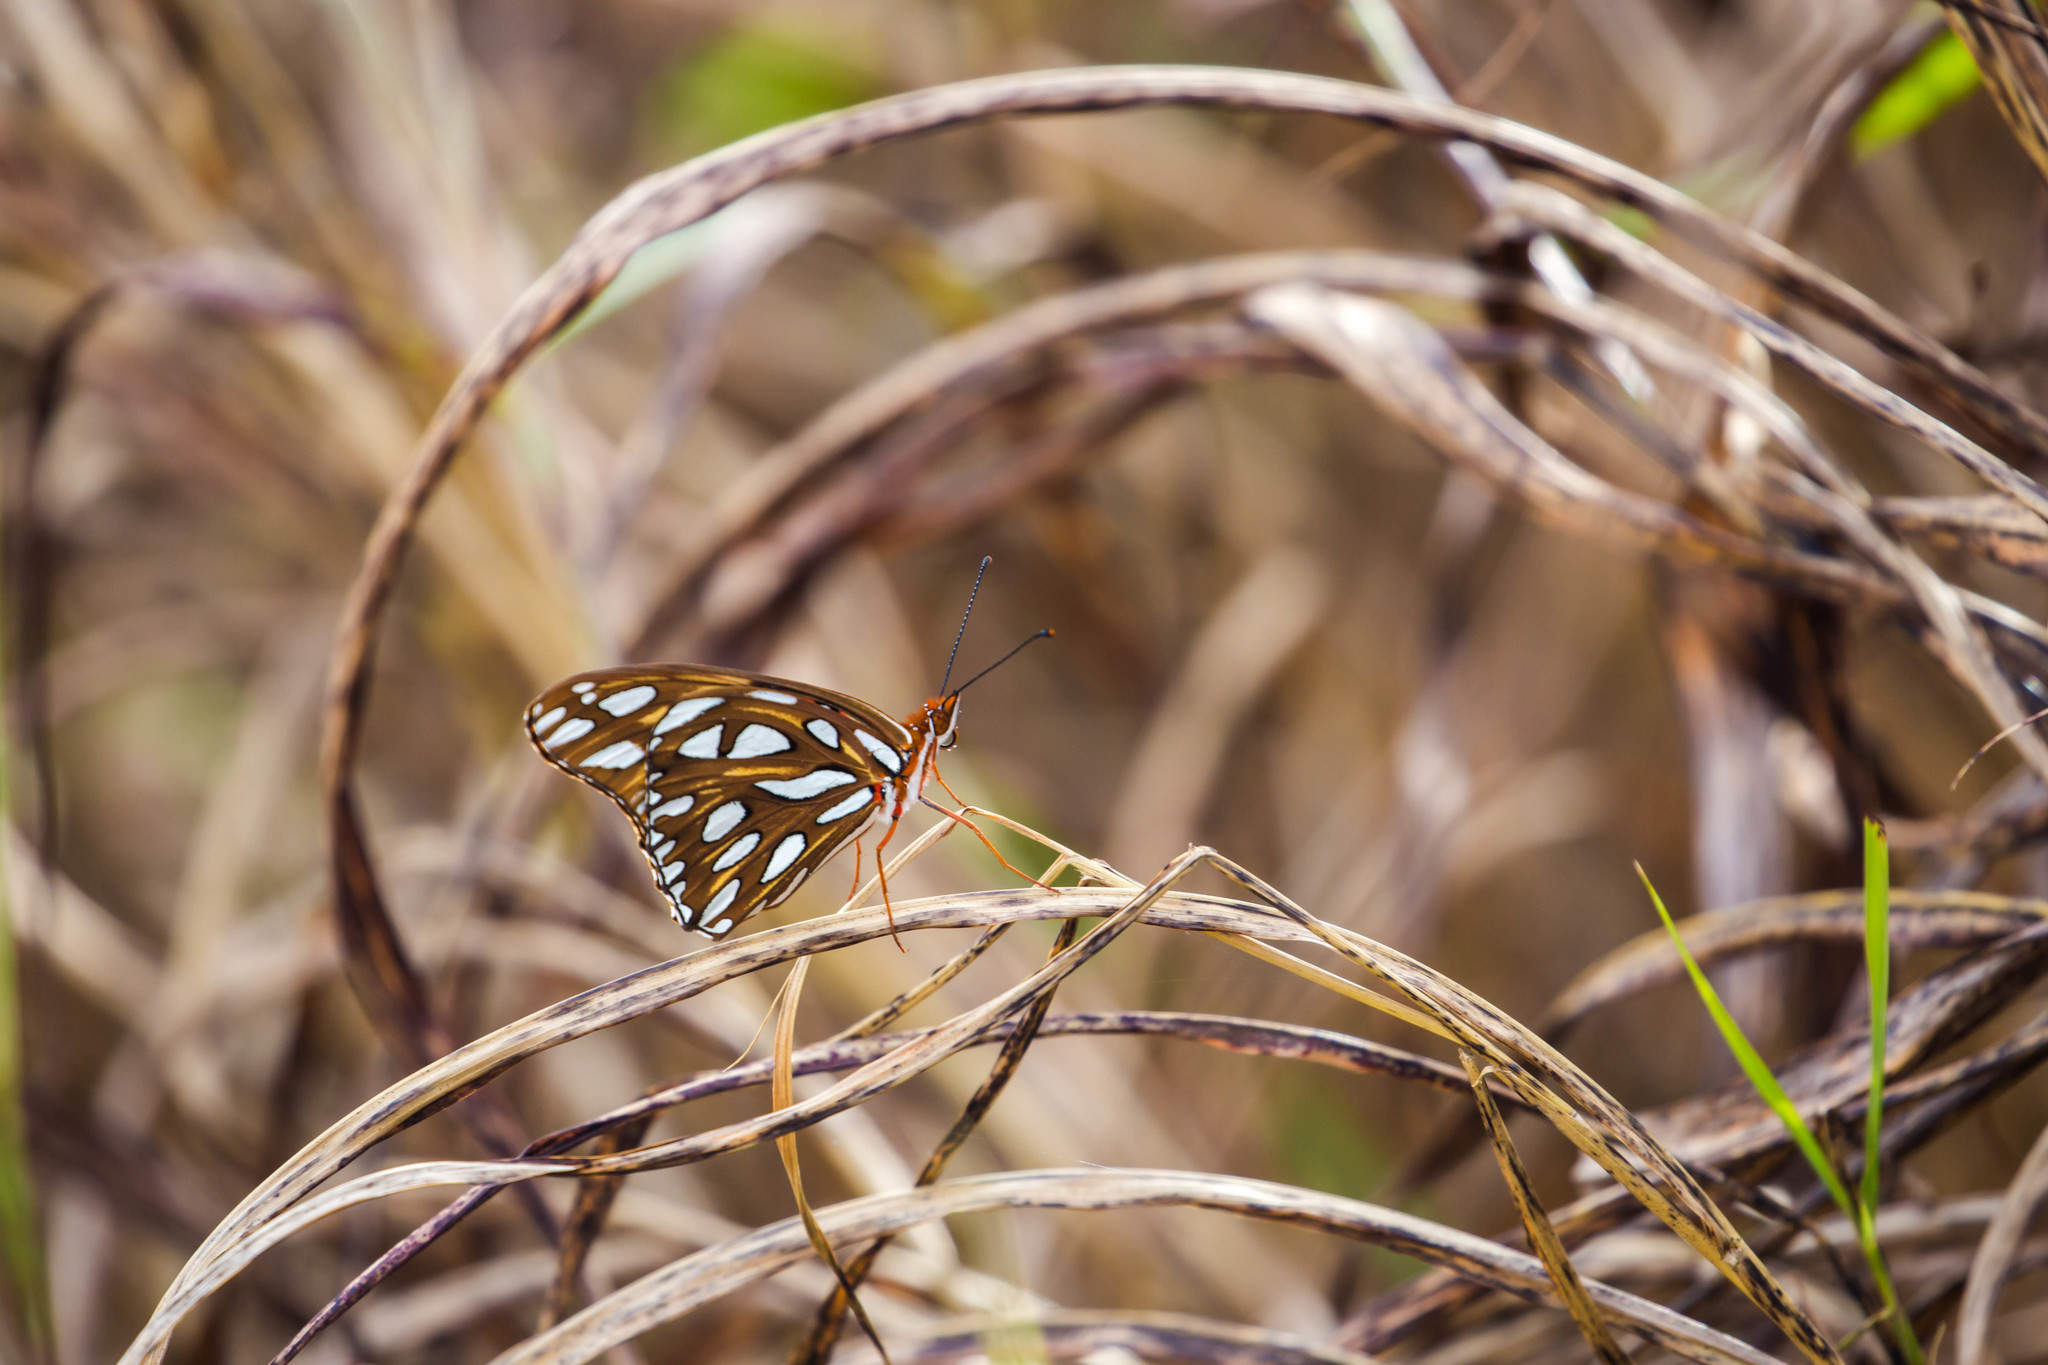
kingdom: Animalia
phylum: Arthropoda
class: Insecta
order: Lepidoptera
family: Nymphalidae
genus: Dione
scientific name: Dione vanillae
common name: Gulf fritillary
